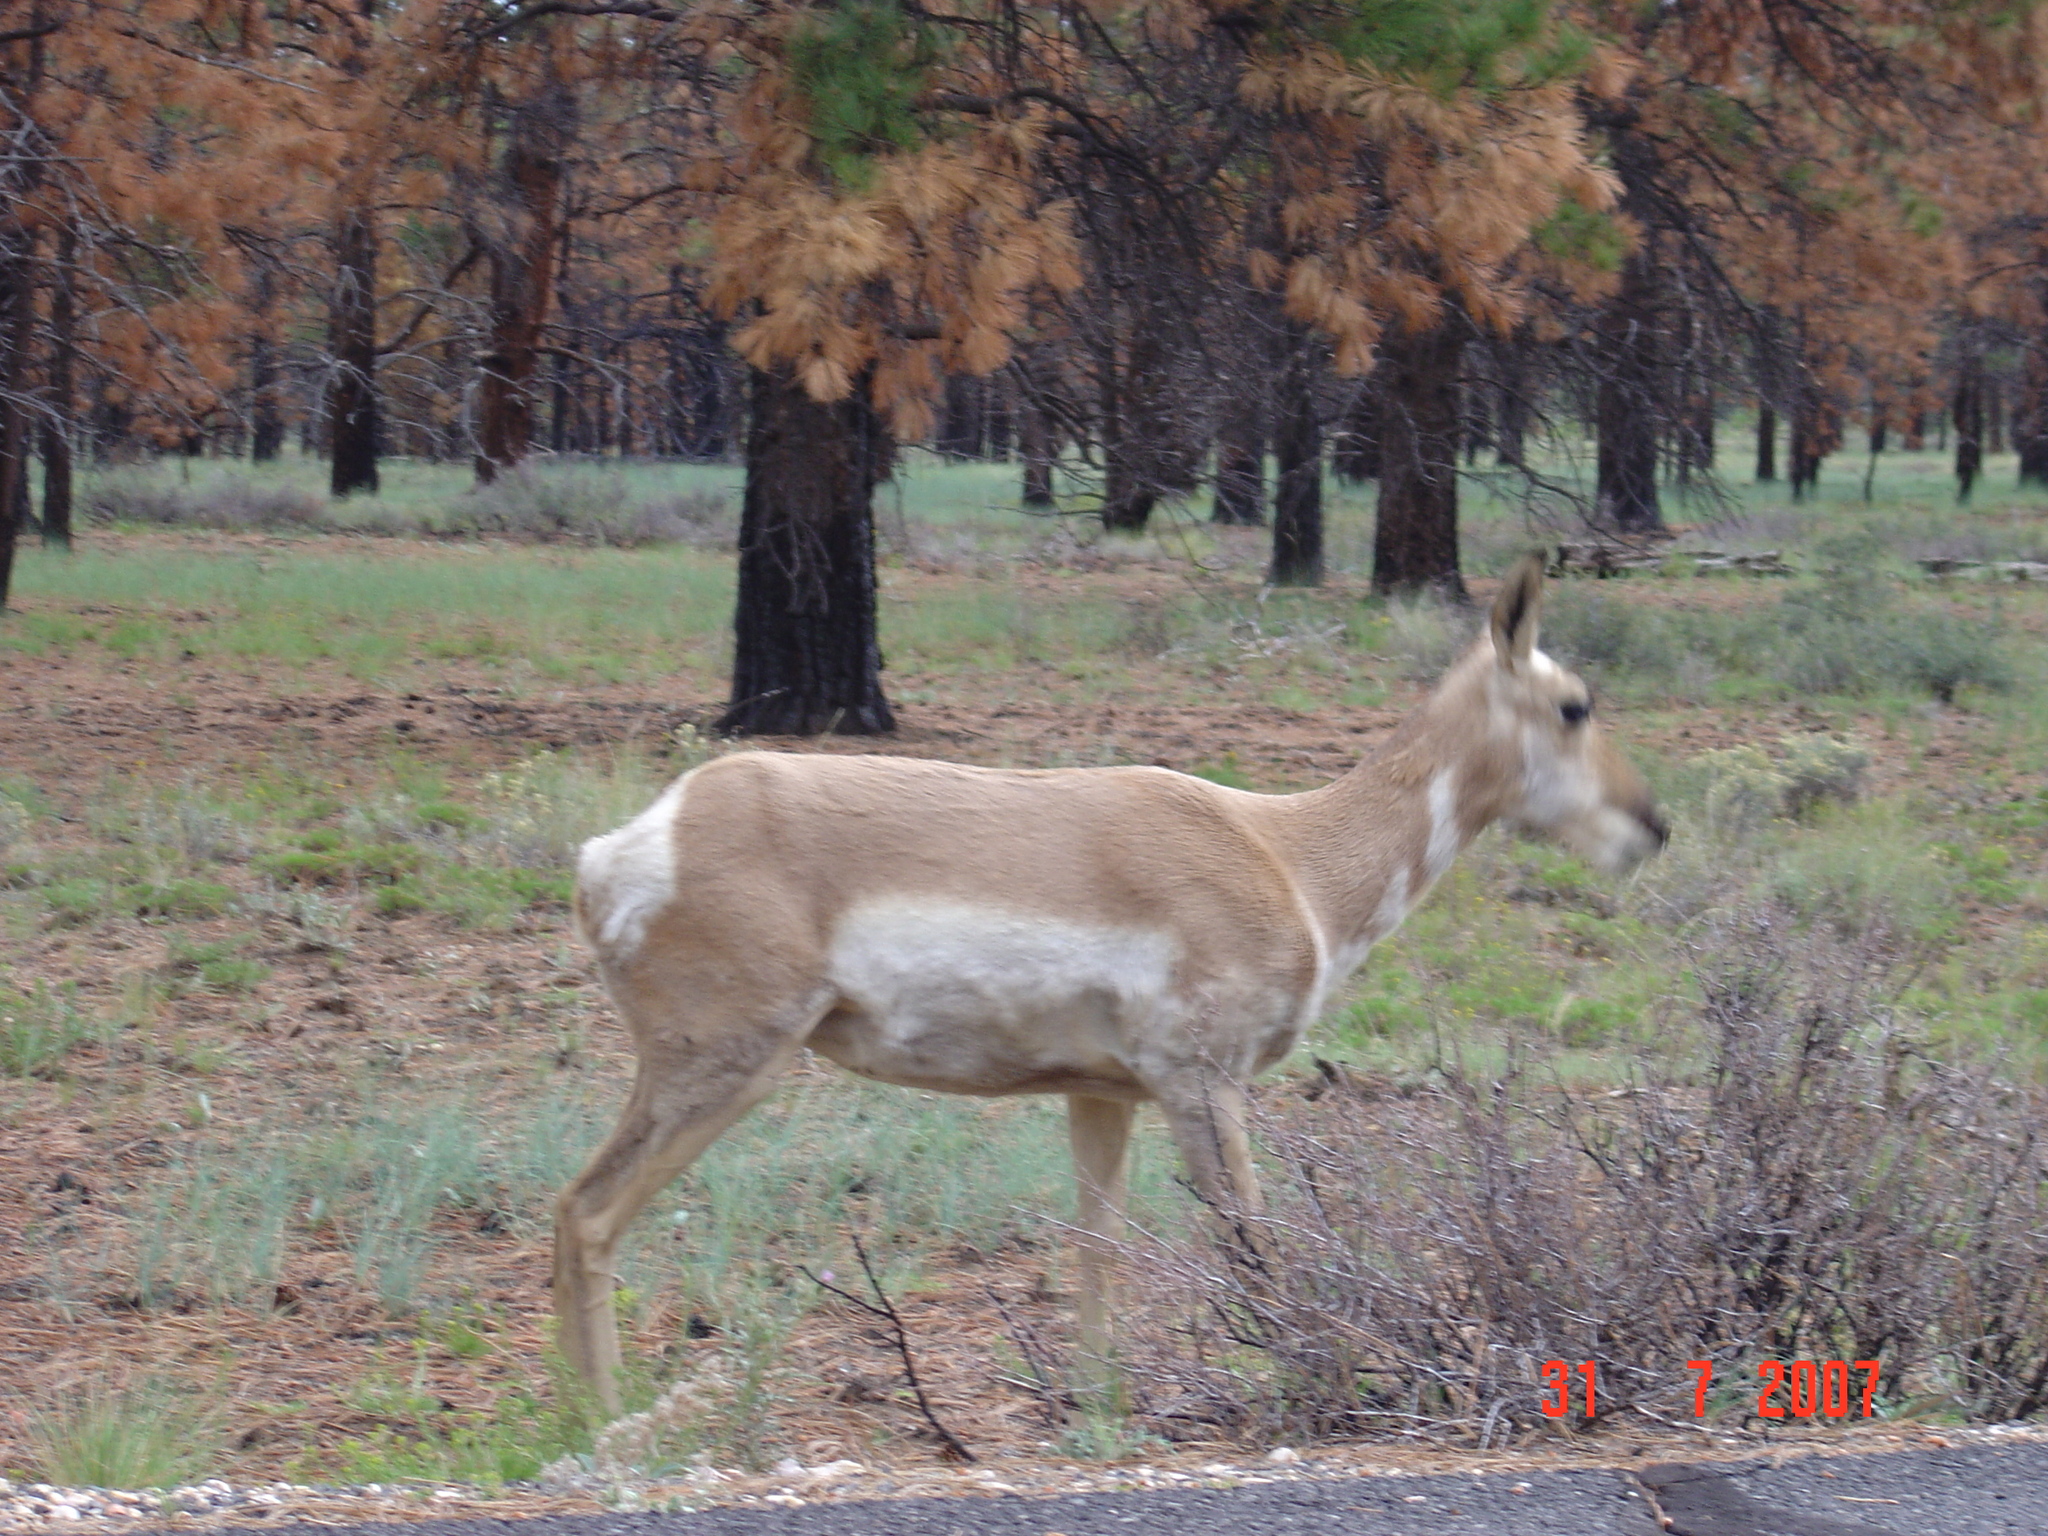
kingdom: Animalia
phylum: Chordata
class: Mammalia
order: Artiodactyla
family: Antilocapridae
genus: Antilocapra
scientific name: Antilocapra americana
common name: Pronghorn
